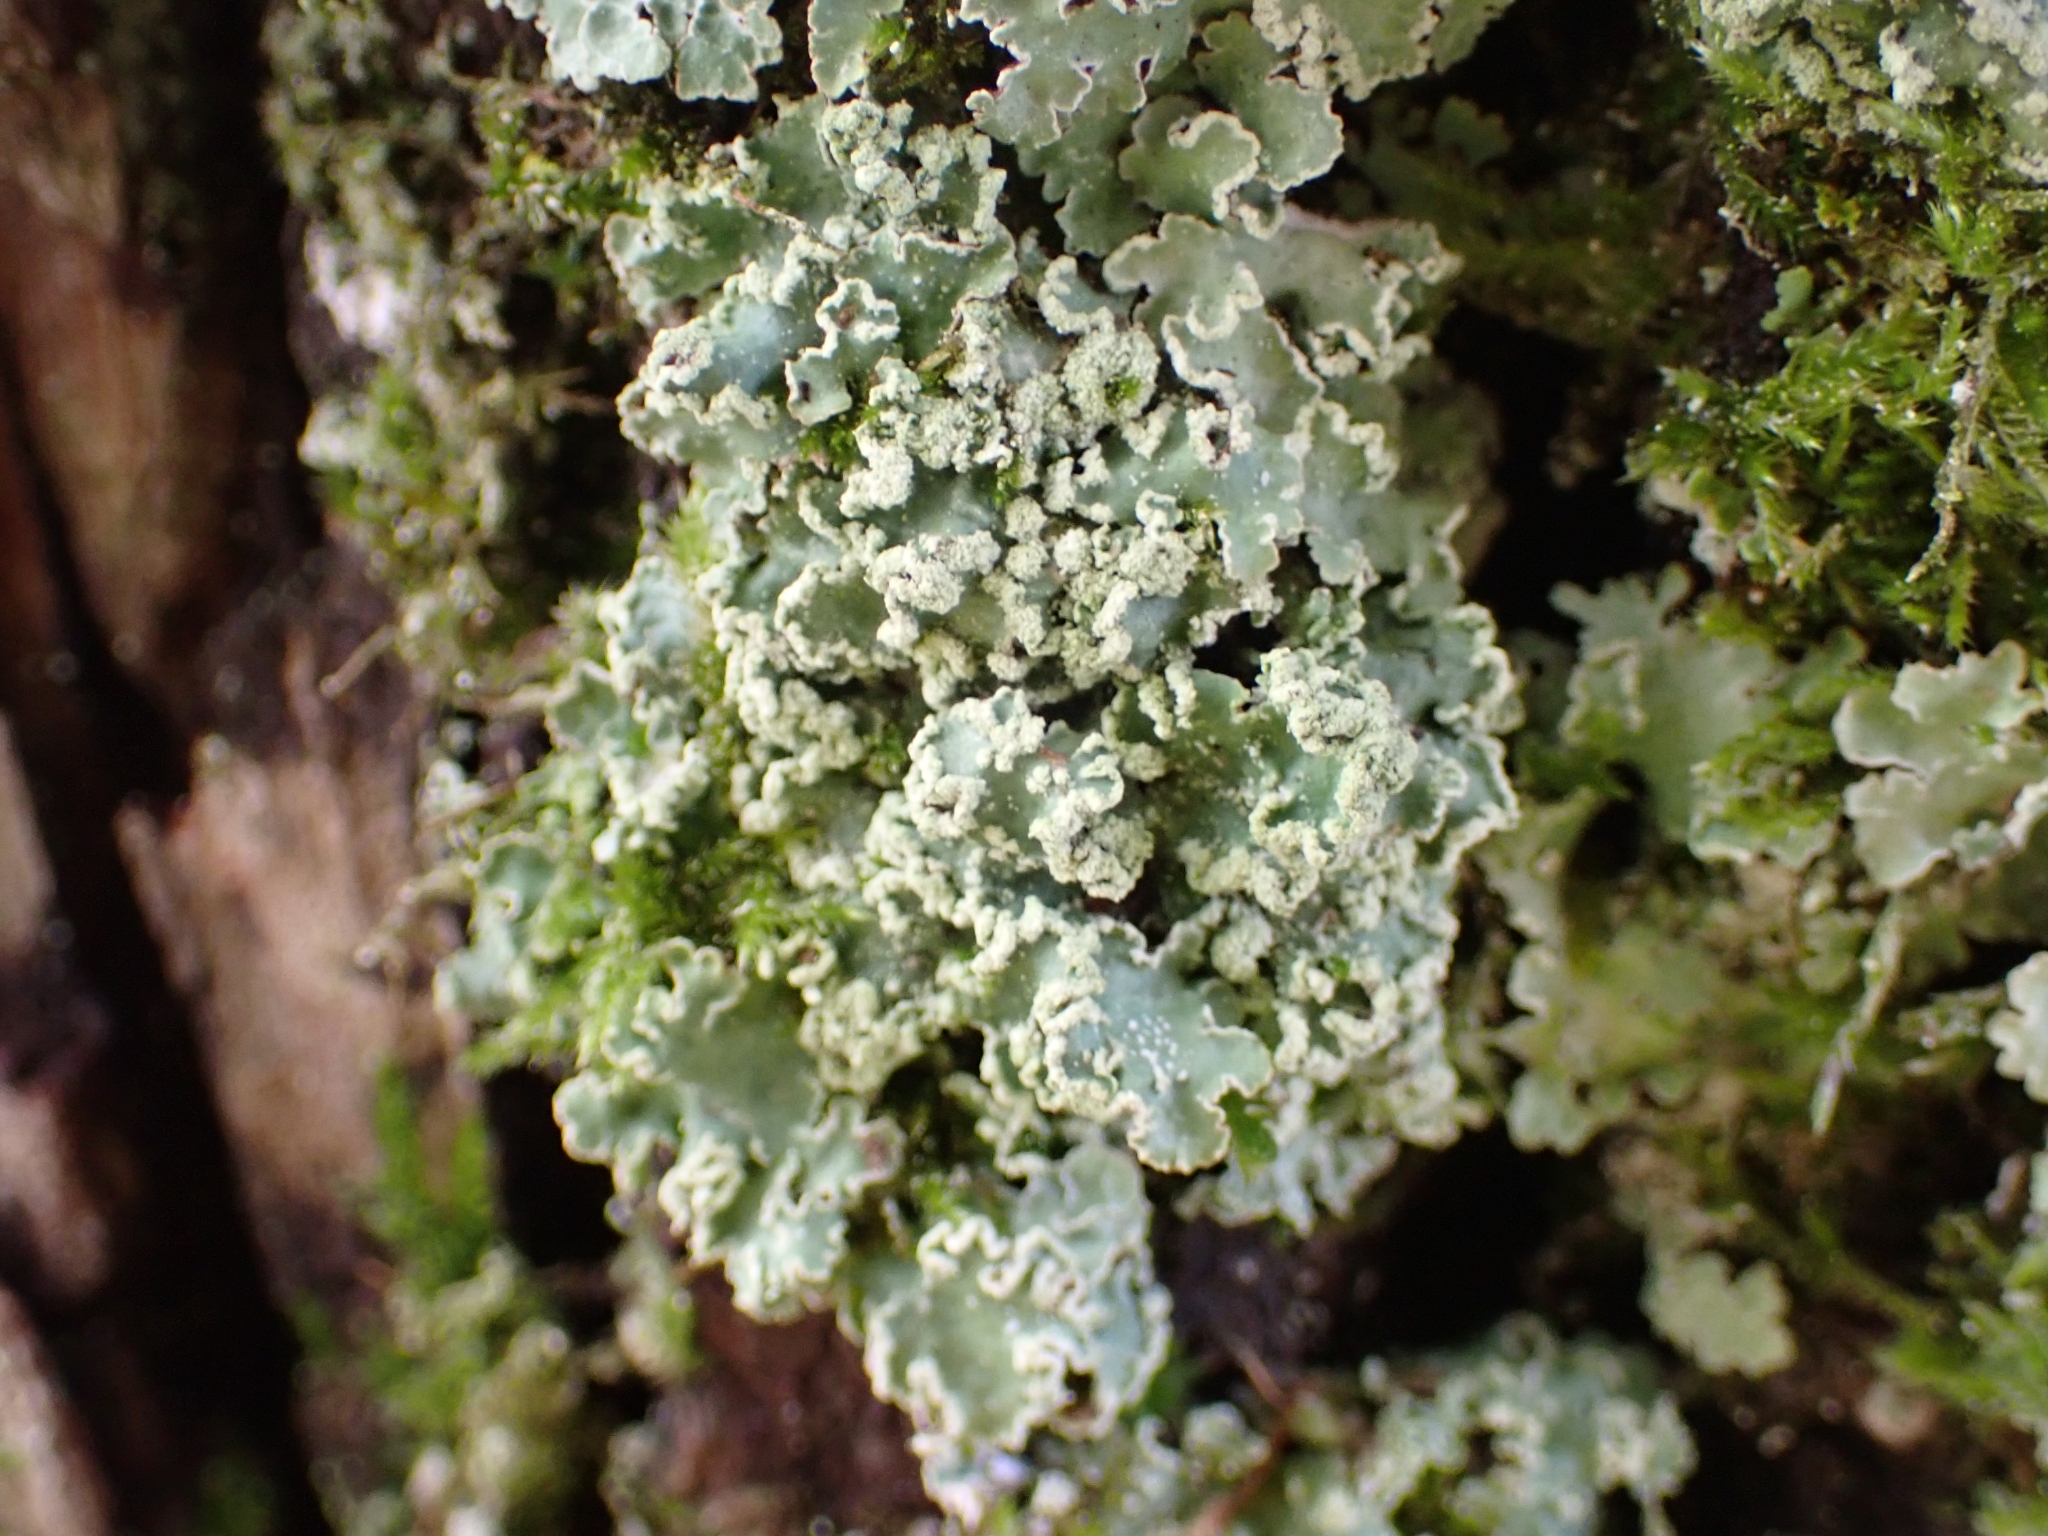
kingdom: Fungi
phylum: Ascomycota
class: Lecanoromycetes
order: Lecanorales
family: Parmeliaceae
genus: Punctelia
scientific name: Punctelia jeckeri
